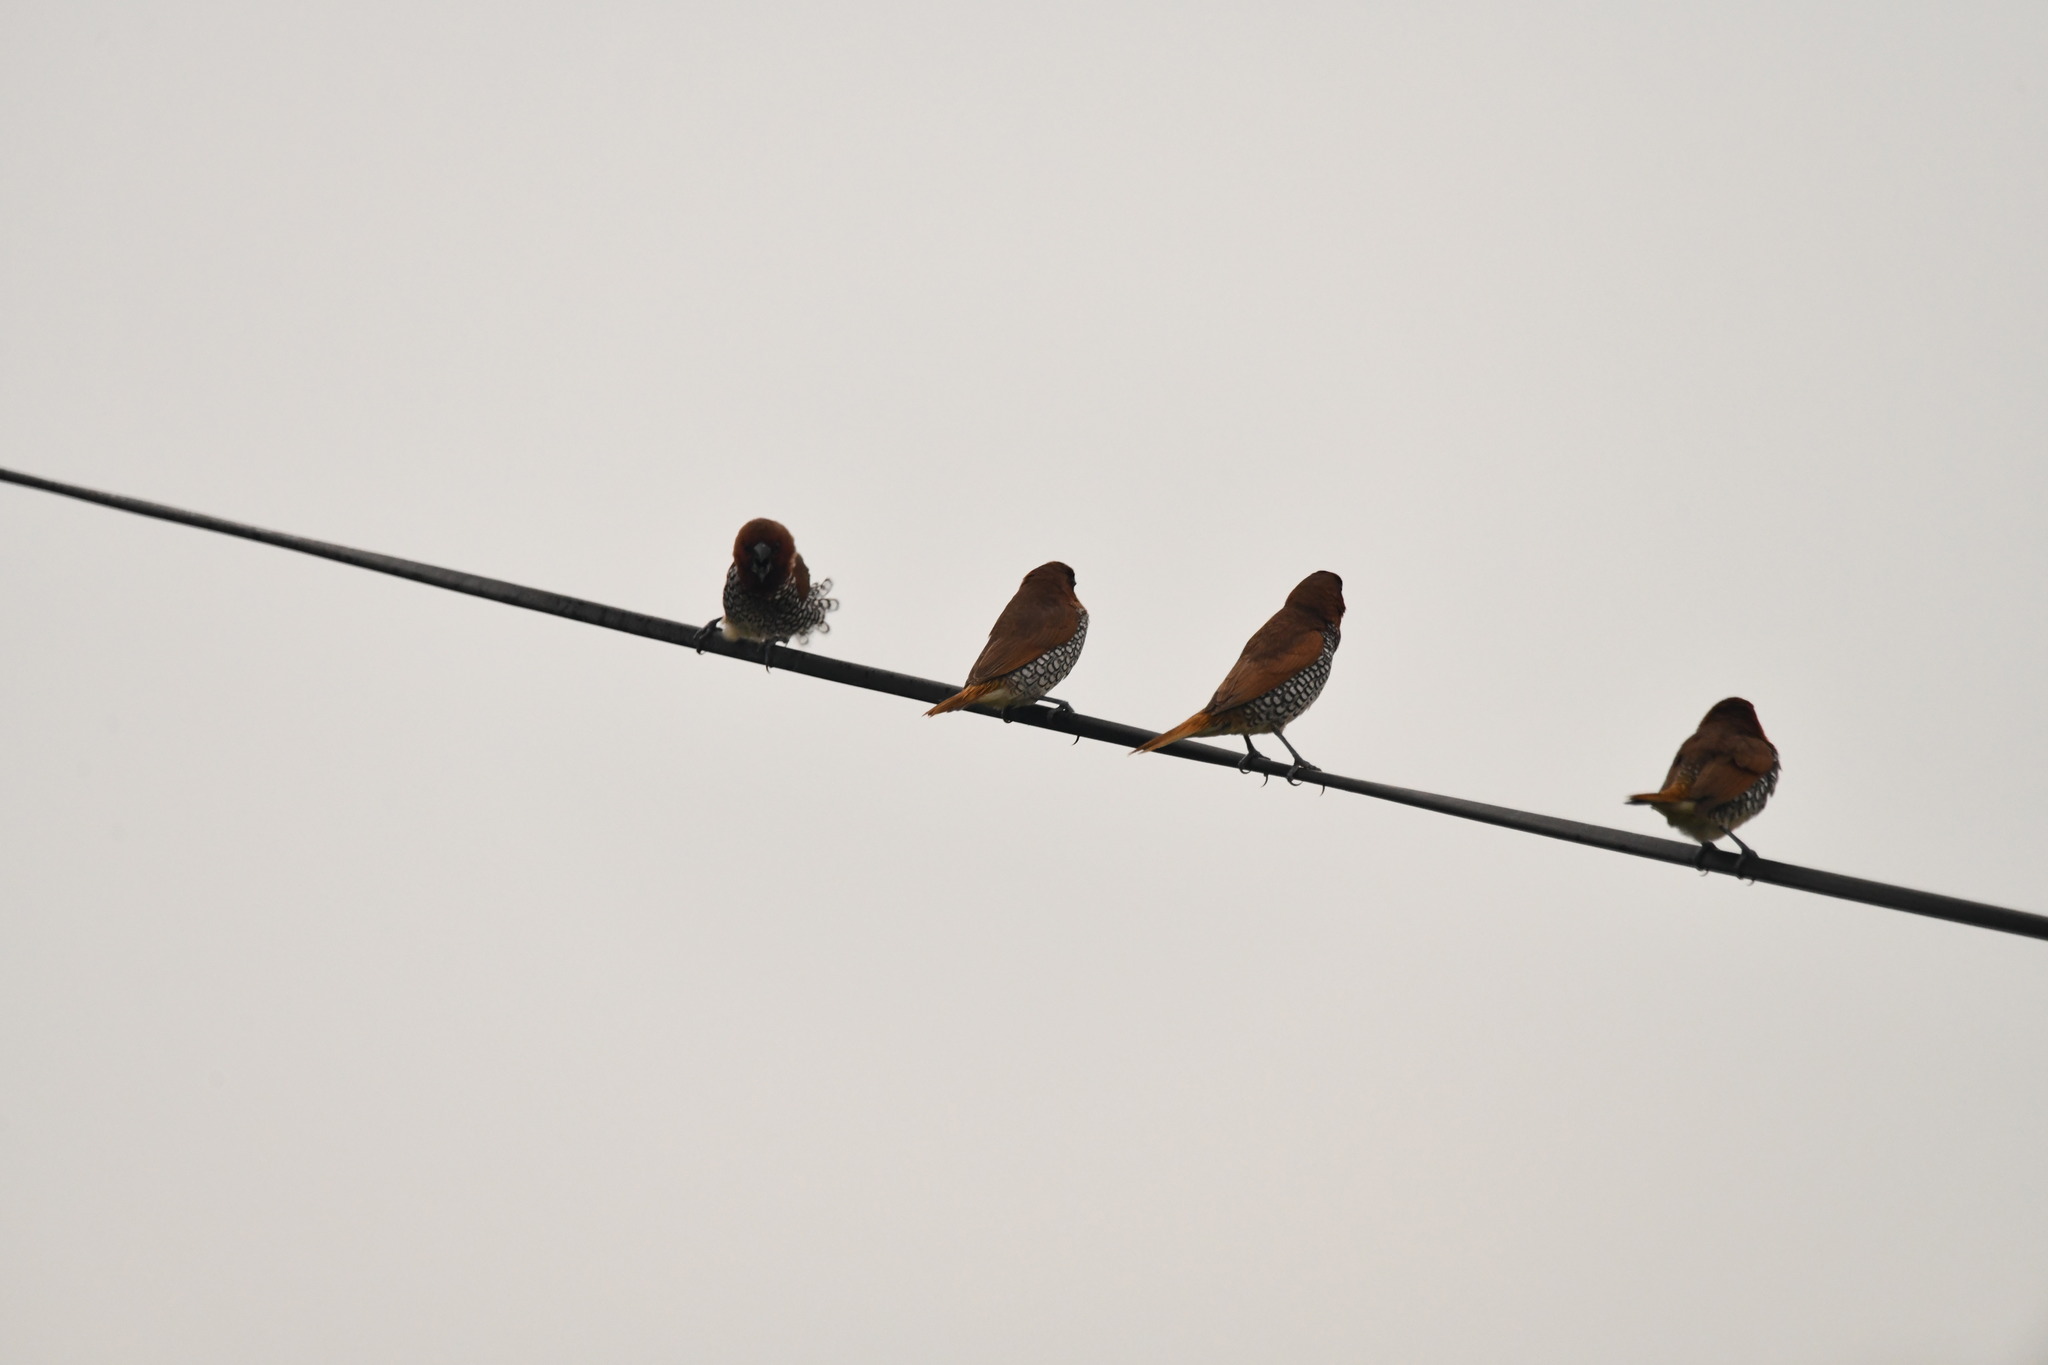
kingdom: Animalia
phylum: Chordata
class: Aves
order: Passeriformes
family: Estrildidae
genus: Lonchura
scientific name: Lonchura punctulata
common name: Scaly-breasted munia
